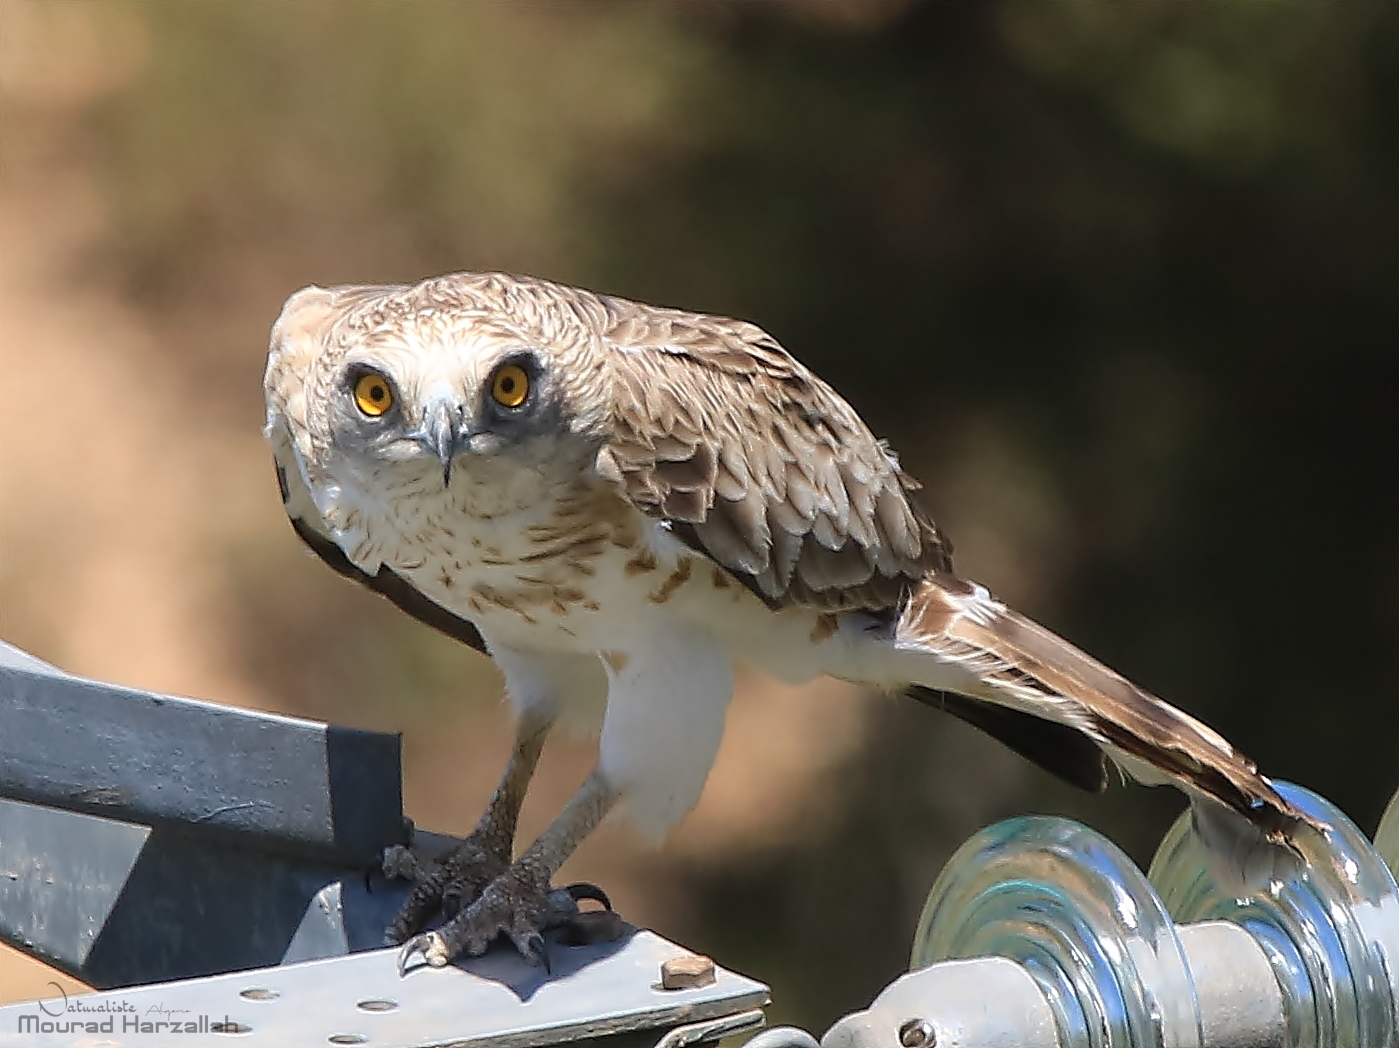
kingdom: Animalia
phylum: Chordata
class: Aves
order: Accipitriformes
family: Accipitridae
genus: Circaetus
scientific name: Circaetus gallicus
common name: Short-toed snake eagle
